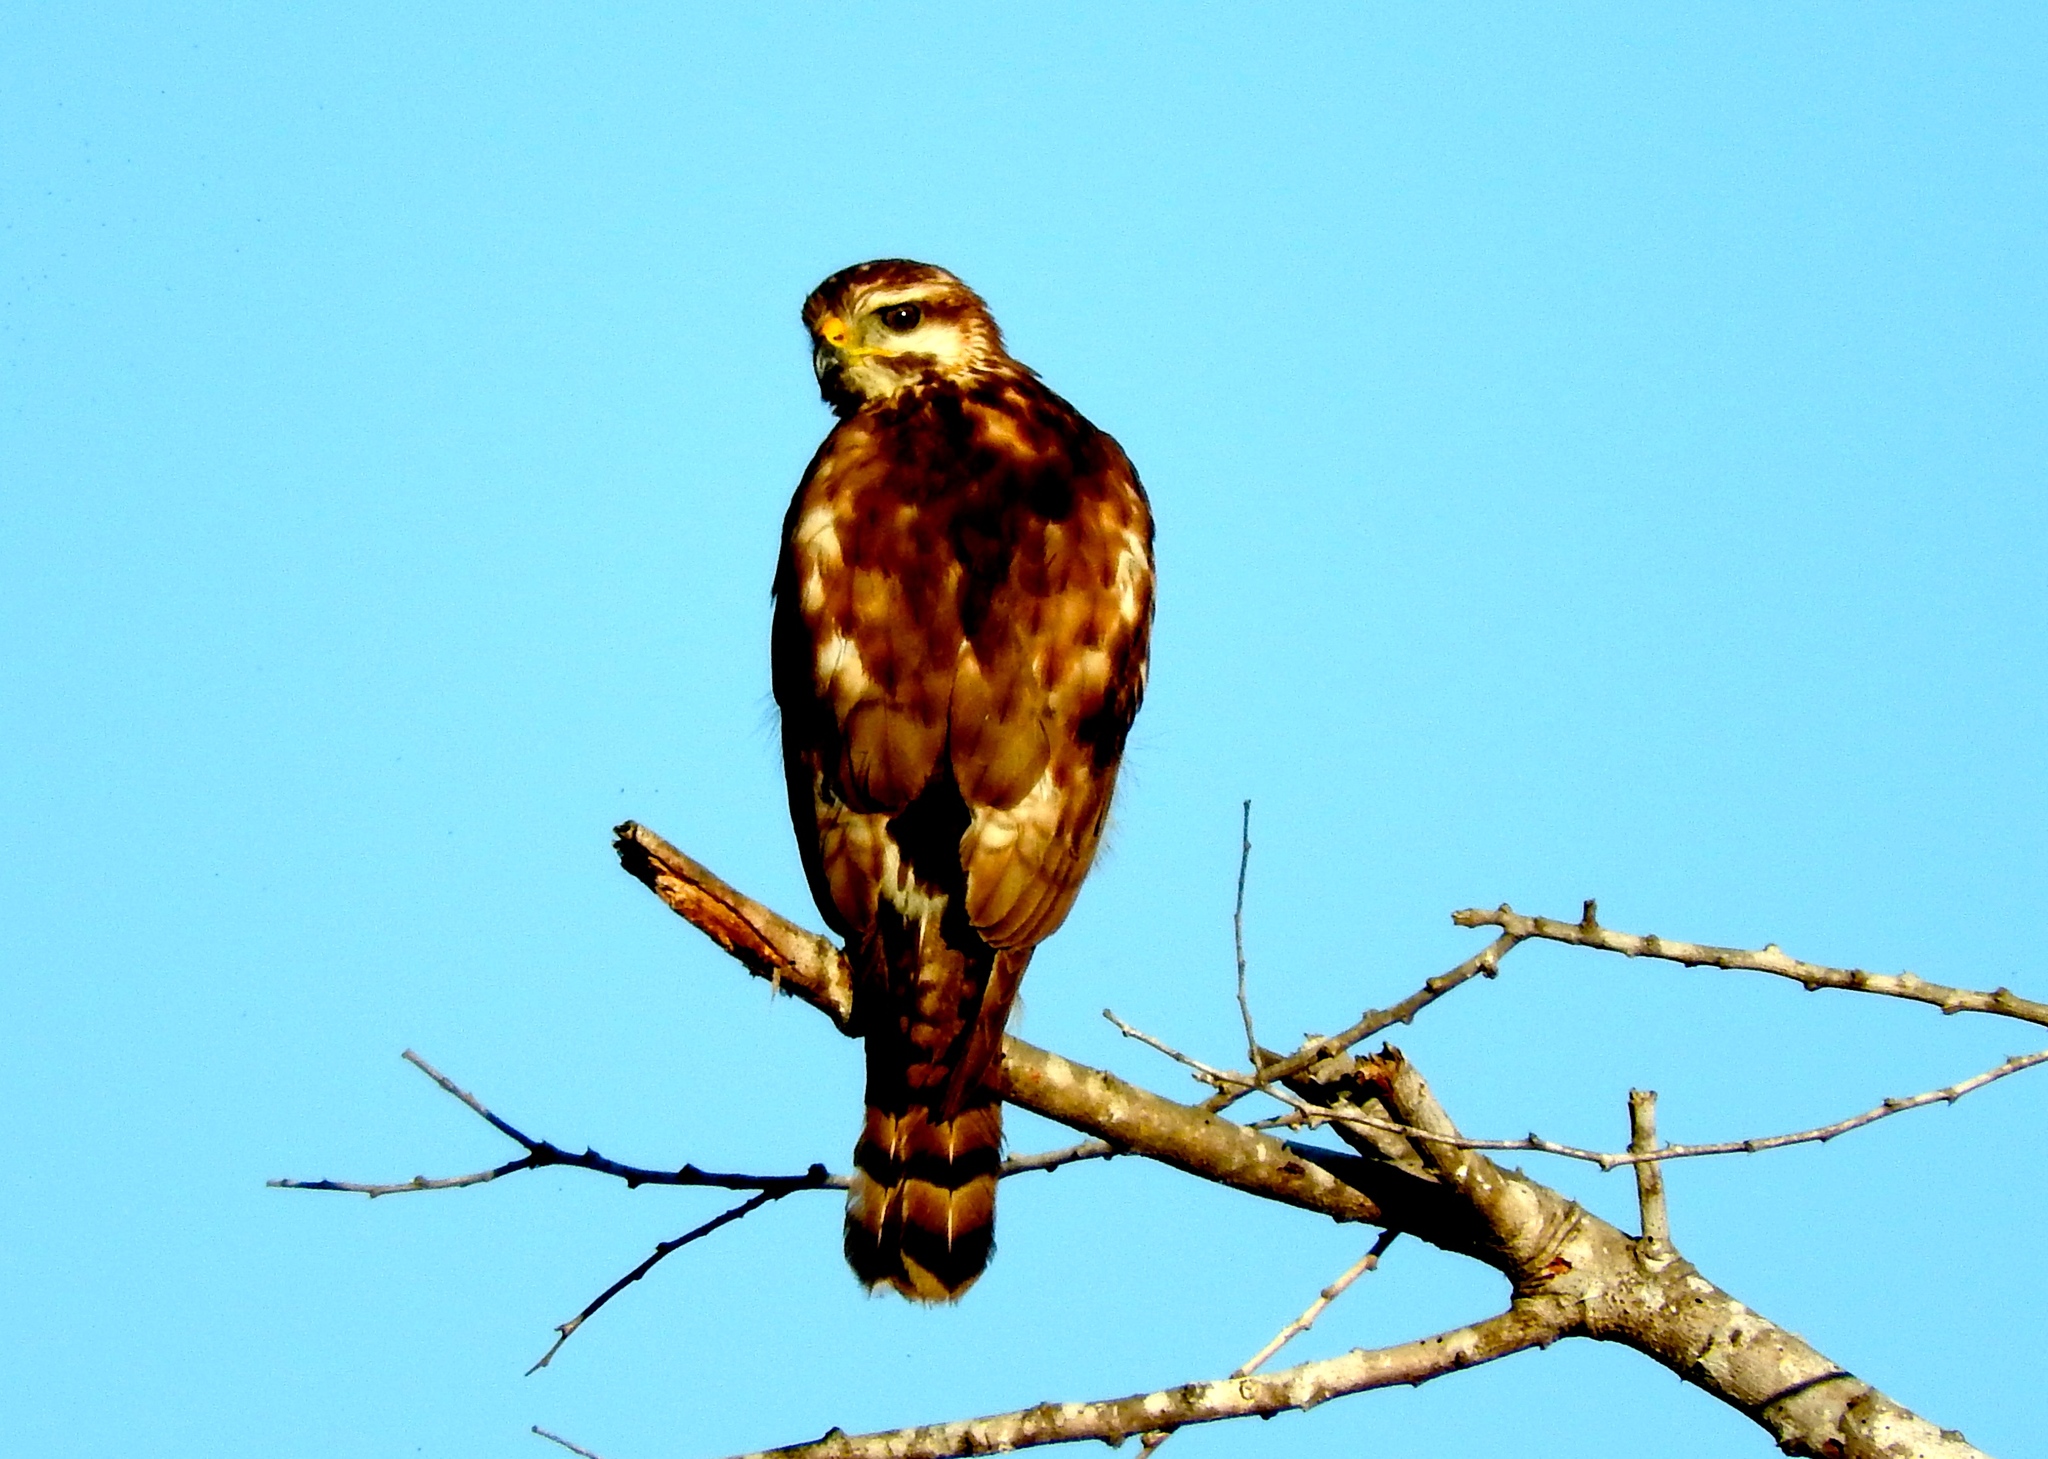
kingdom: Animalia
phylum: Chordata
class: Aves
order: Accipitriformes
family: Accipitridae
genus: Buteo
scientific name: Buteo nitidus
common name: Grey-lined hawk
